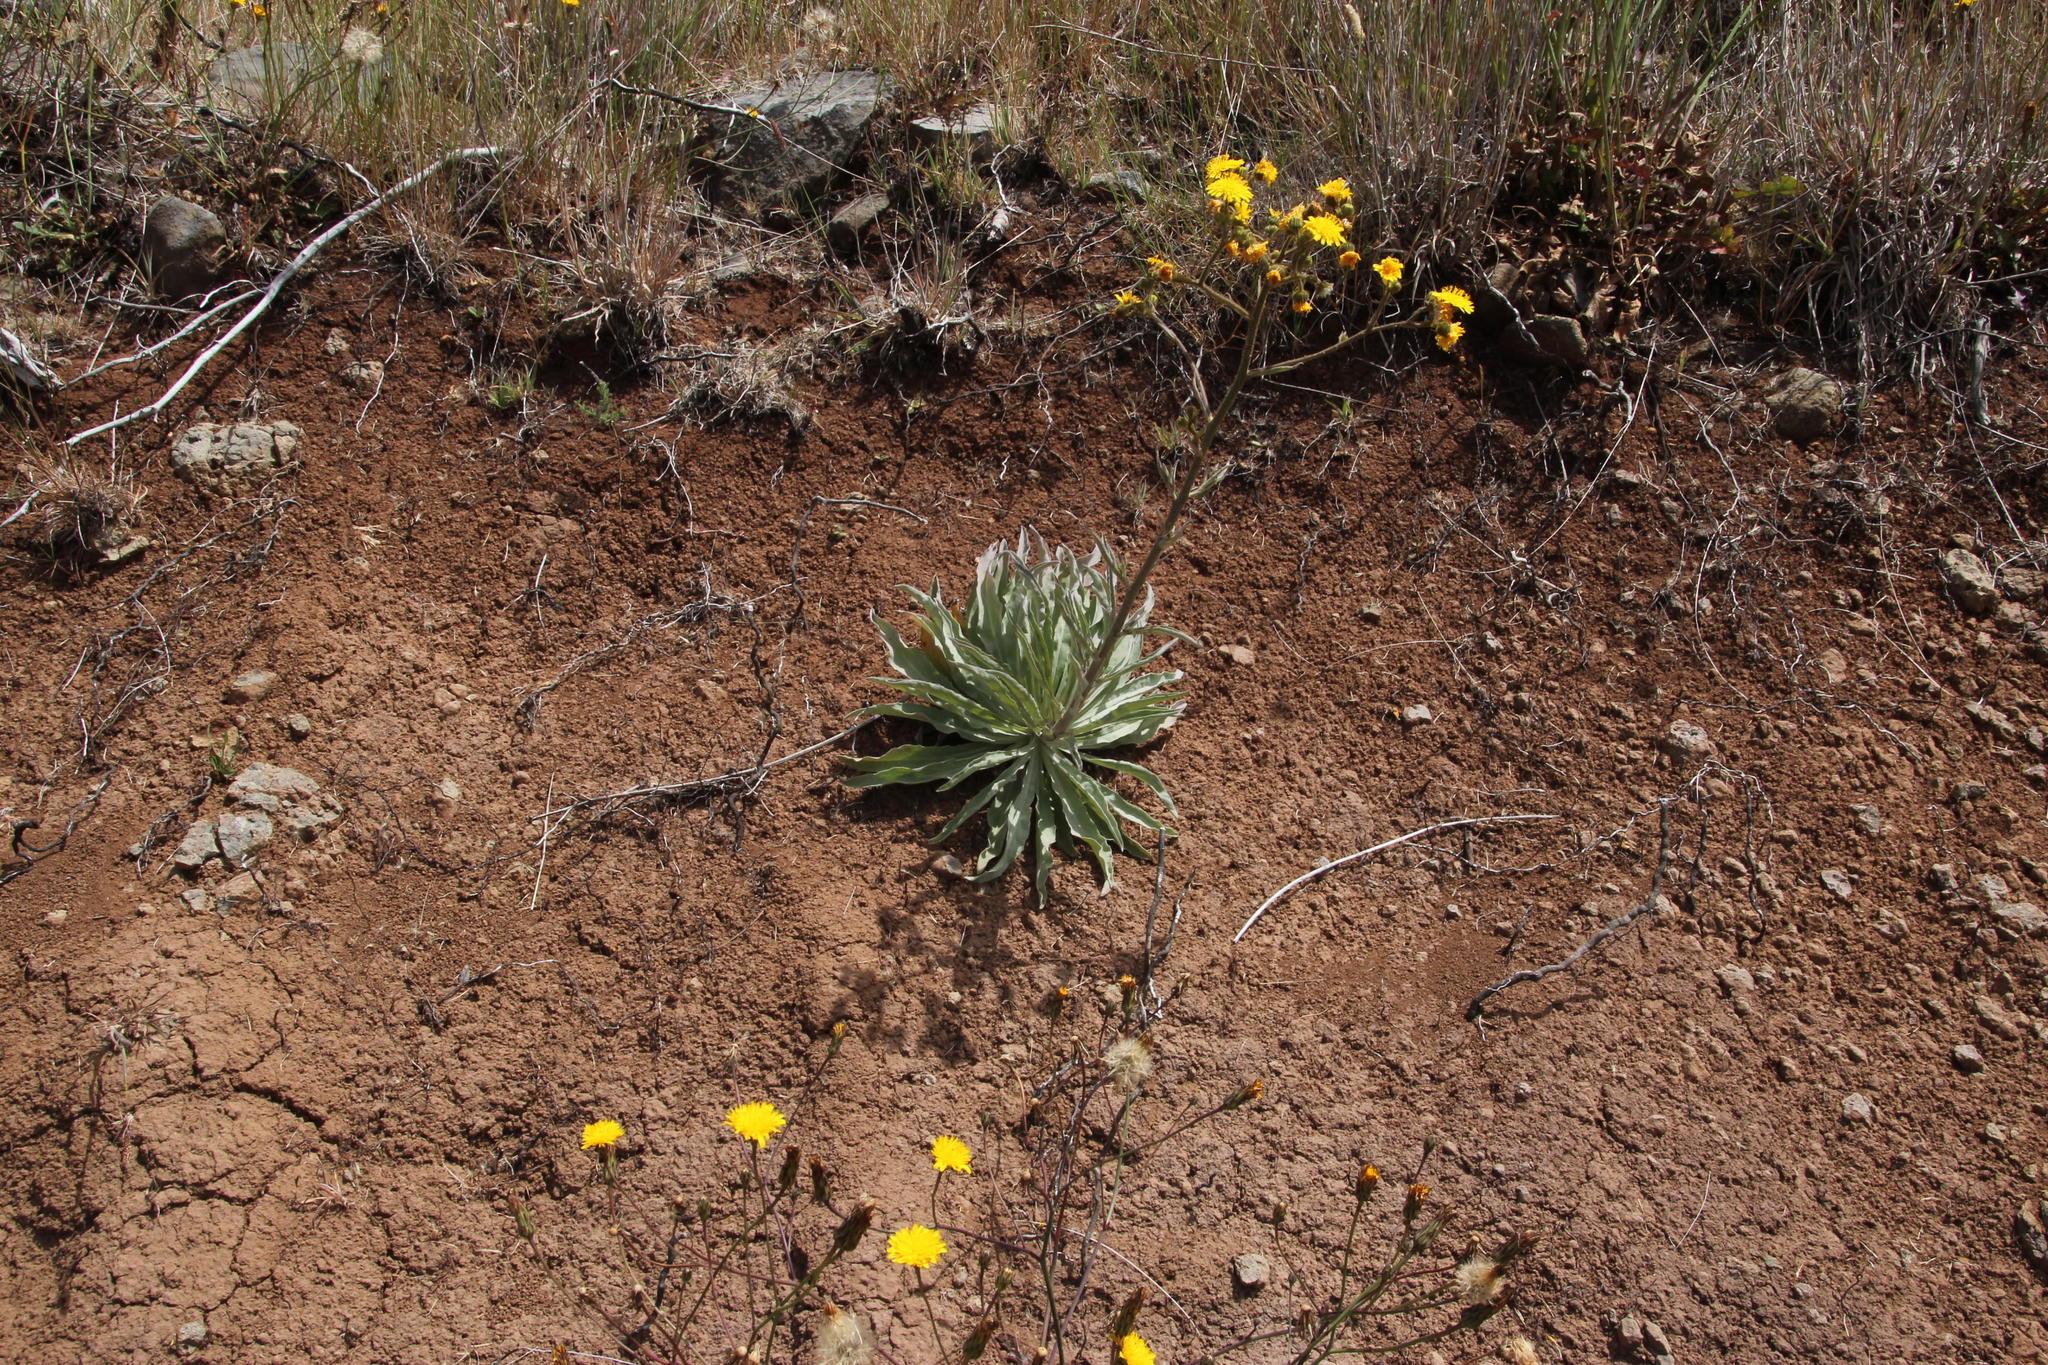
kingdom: Plantae
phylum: Tracheophyta
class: Magnoliopsida
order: Asterales
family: Asteraceae
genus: Andryala
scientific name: Andryala glandulosa
